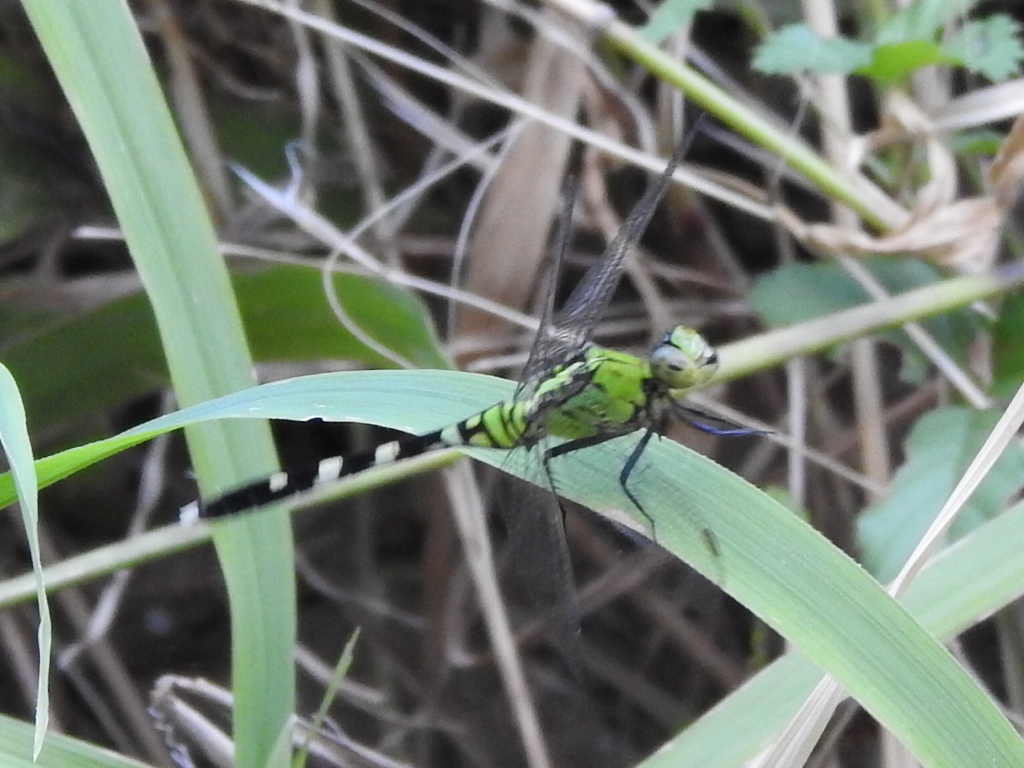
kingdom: Animalia
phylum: Arthropoda
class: Insecta
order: Odonata
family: Libellulidae
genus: Erythemis
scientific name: Erythemis simplicicollis
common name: Eastern pondhawk
